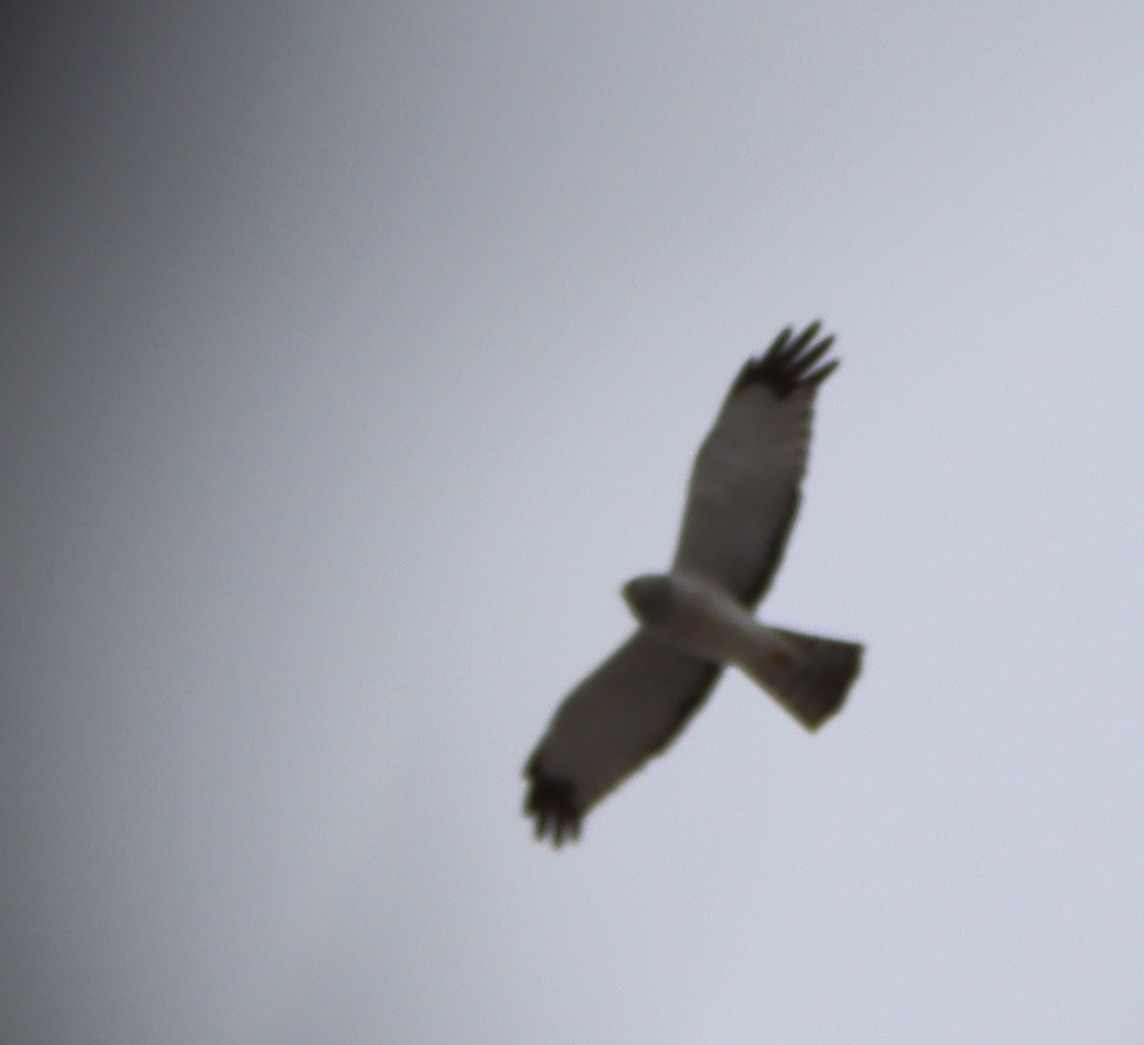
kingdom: Animalia
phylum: Chordata
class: Aves
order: Accipitriformes
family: Accipitridae
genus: Circus
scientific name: Circus cyaneus
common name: Hen harrier
